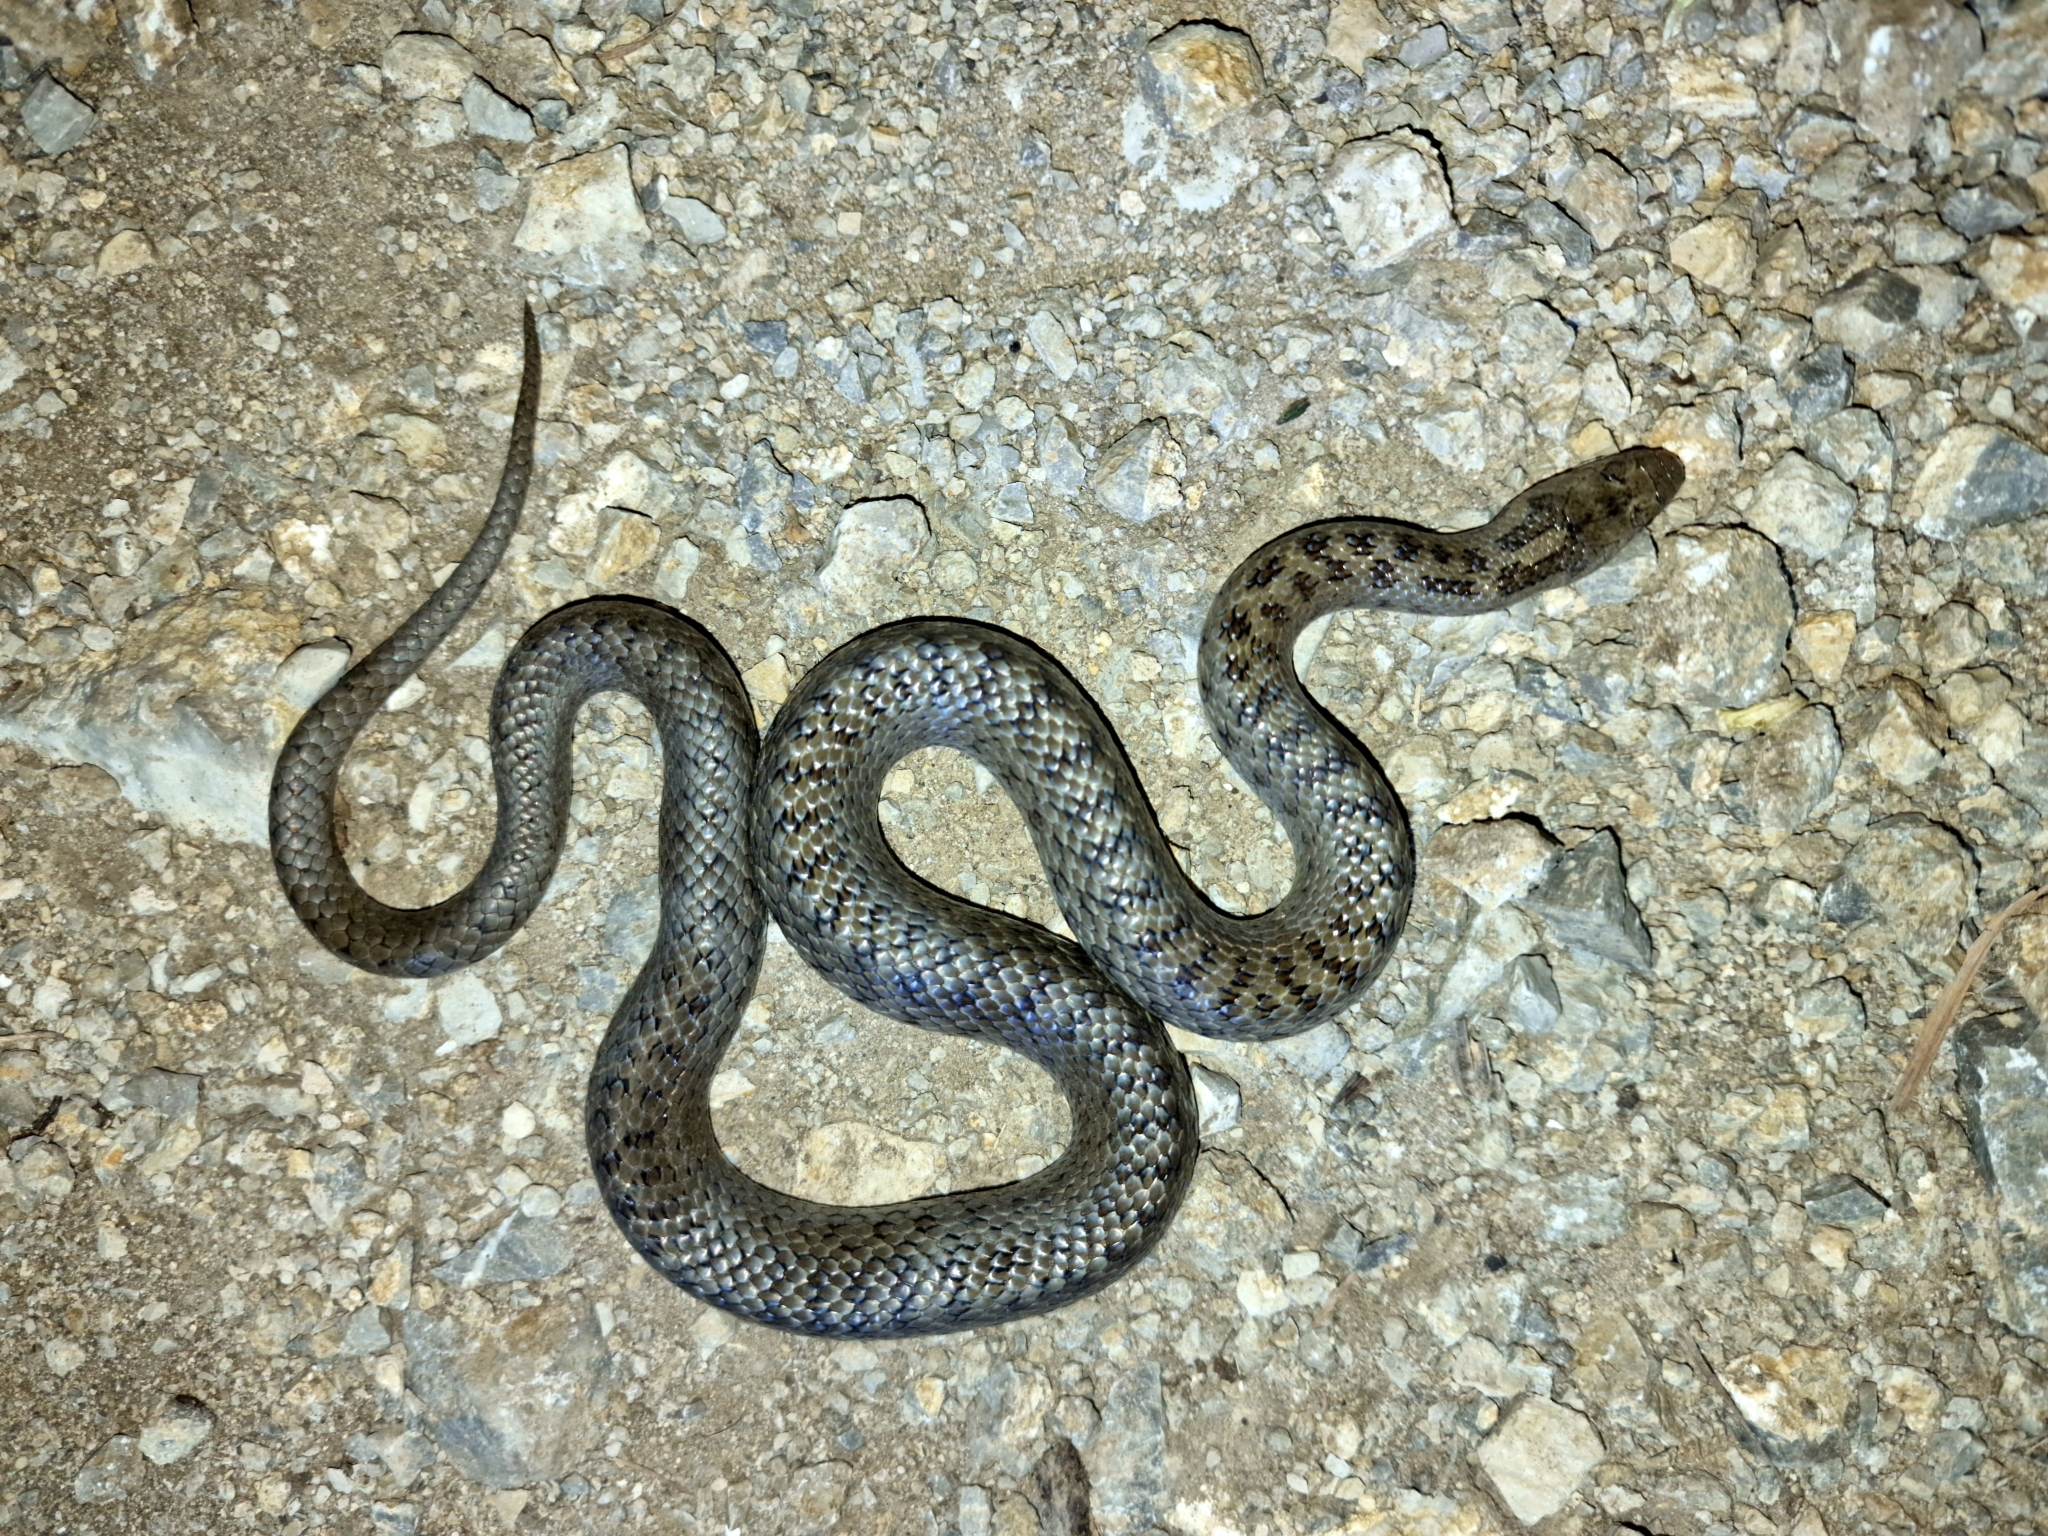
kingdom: Animalia
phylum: Chordata
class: Squamata
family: Colubridae
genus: Coronella
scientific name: Coronella austriaca
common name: Smooth snake
